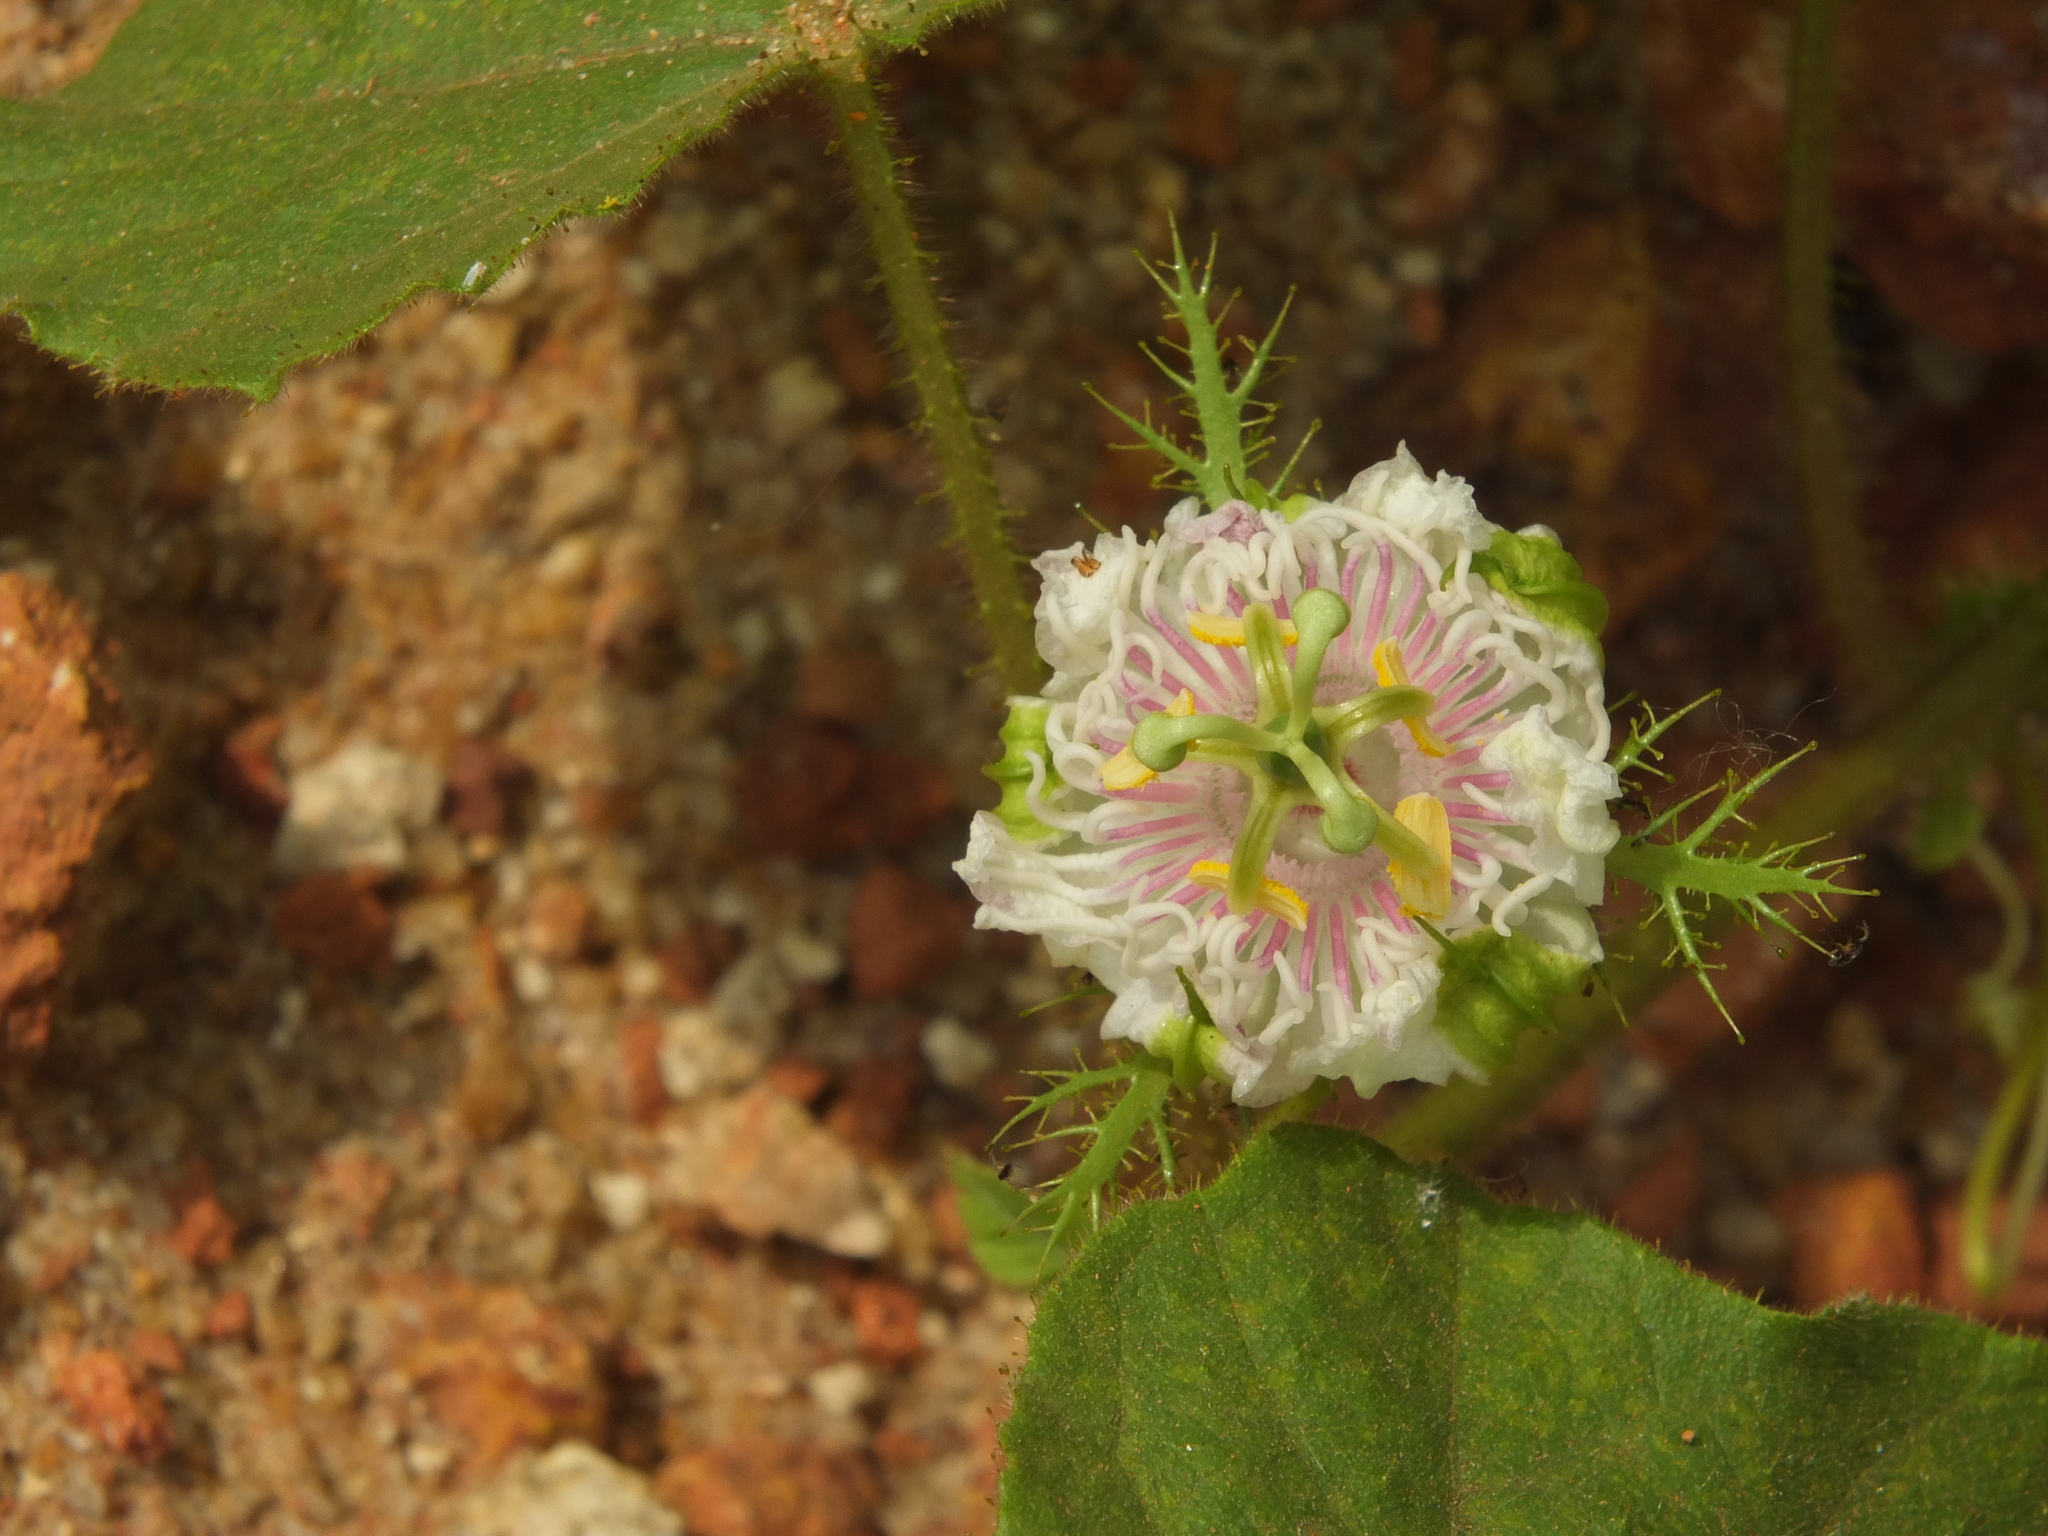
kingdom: Plantae
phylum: Tracheophyta
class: Magnoliopsida
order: Malpighiales
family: Passifloraceae
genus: Passiflora
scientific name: Passiflora foetida
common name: Fetid passionflower
